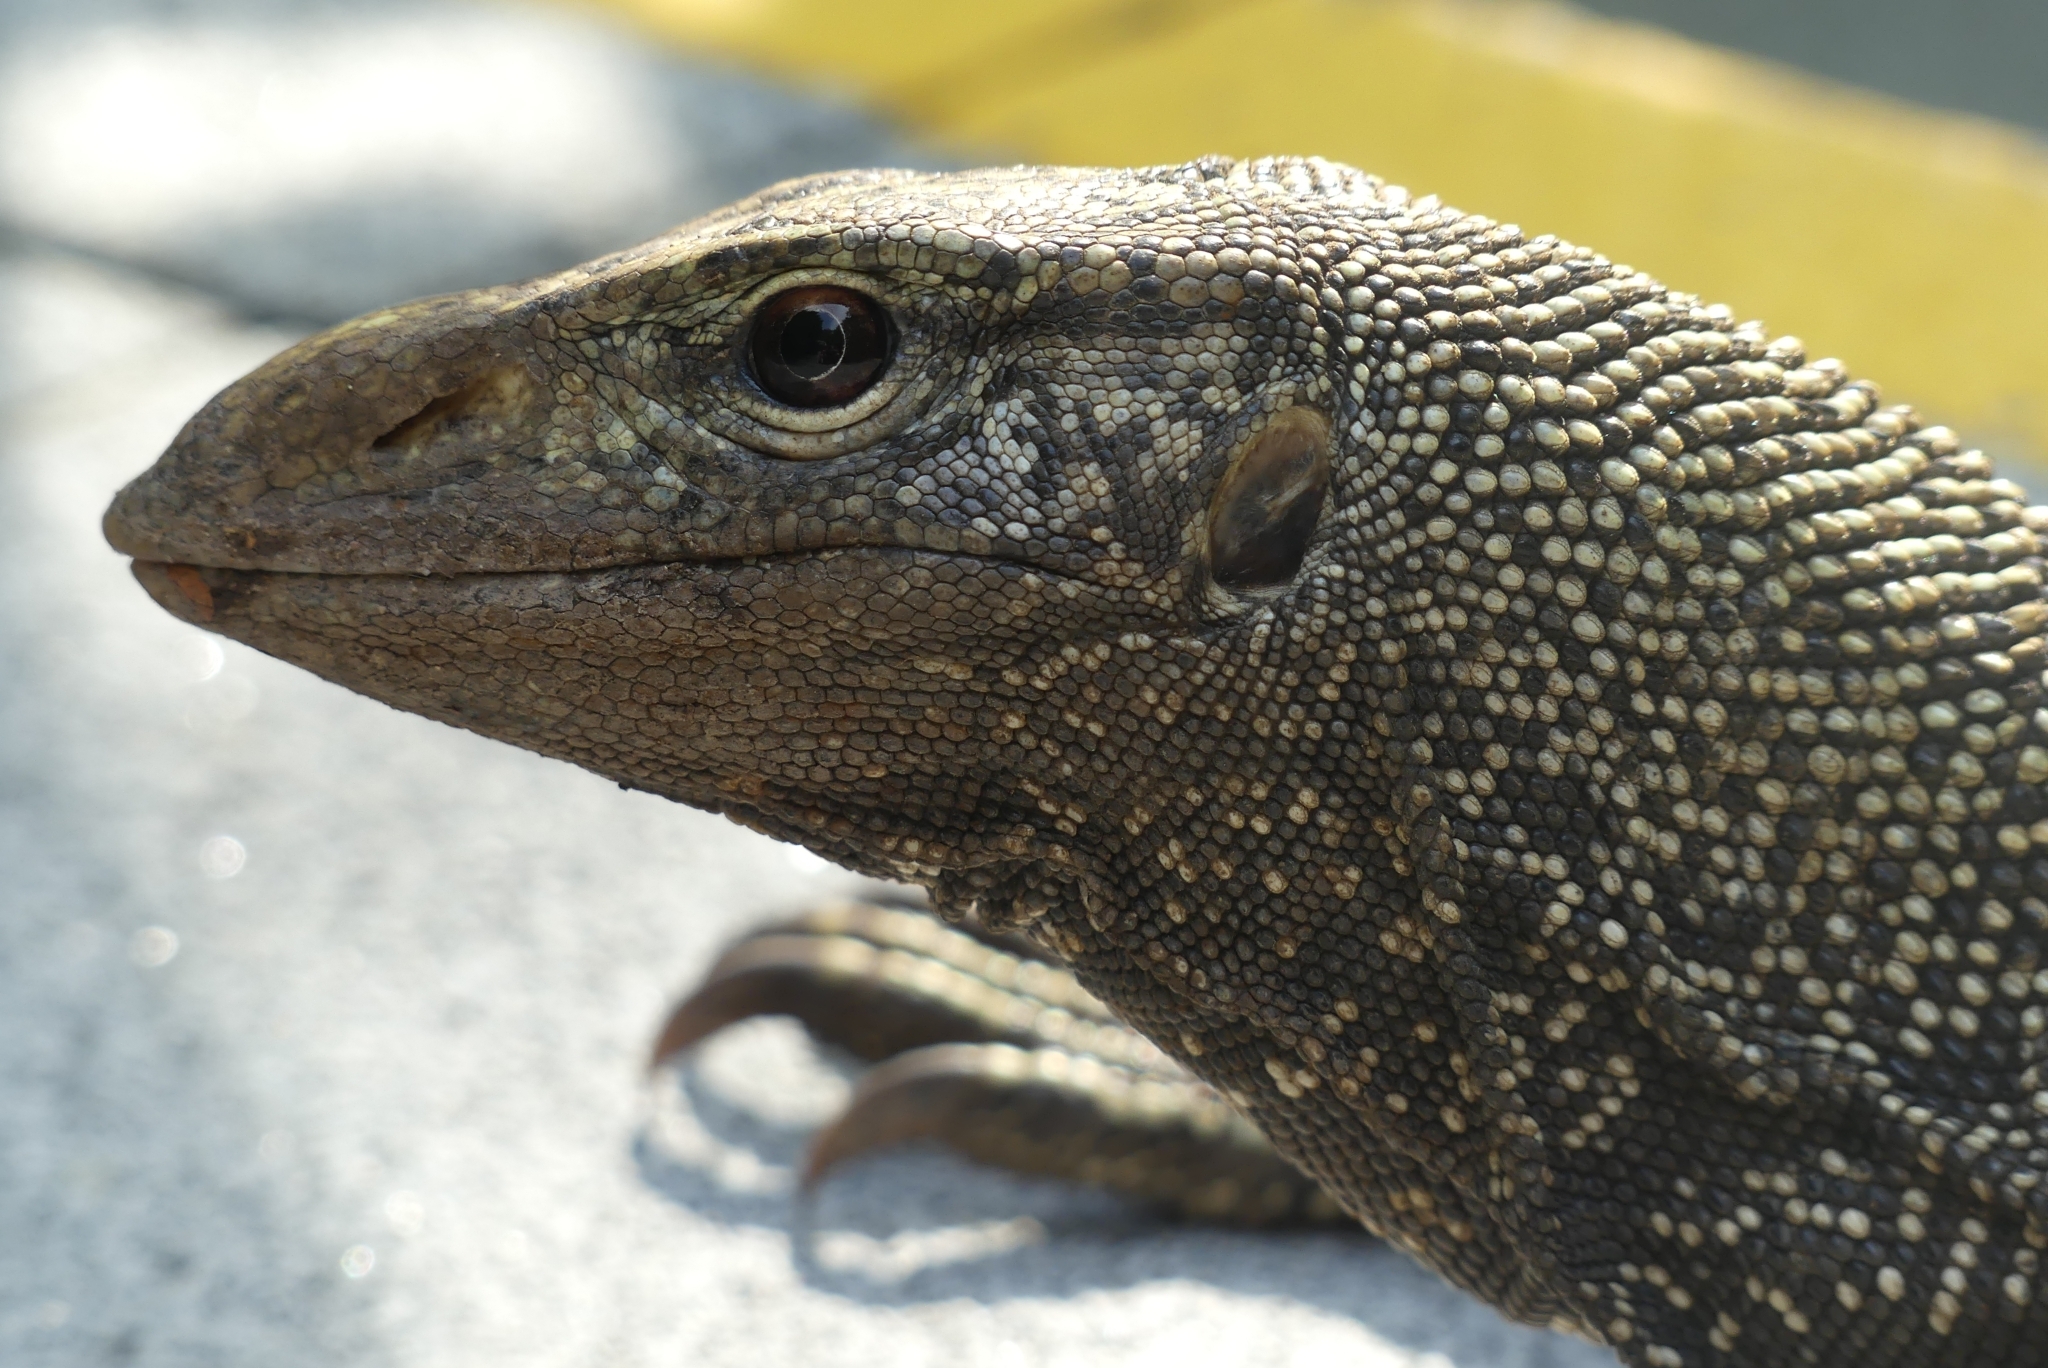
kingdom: Animalia
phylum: Chordata
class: Squamata
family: Varanidae
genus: Varanus
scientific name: Varanus nebulosus
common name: Clouded monitor
